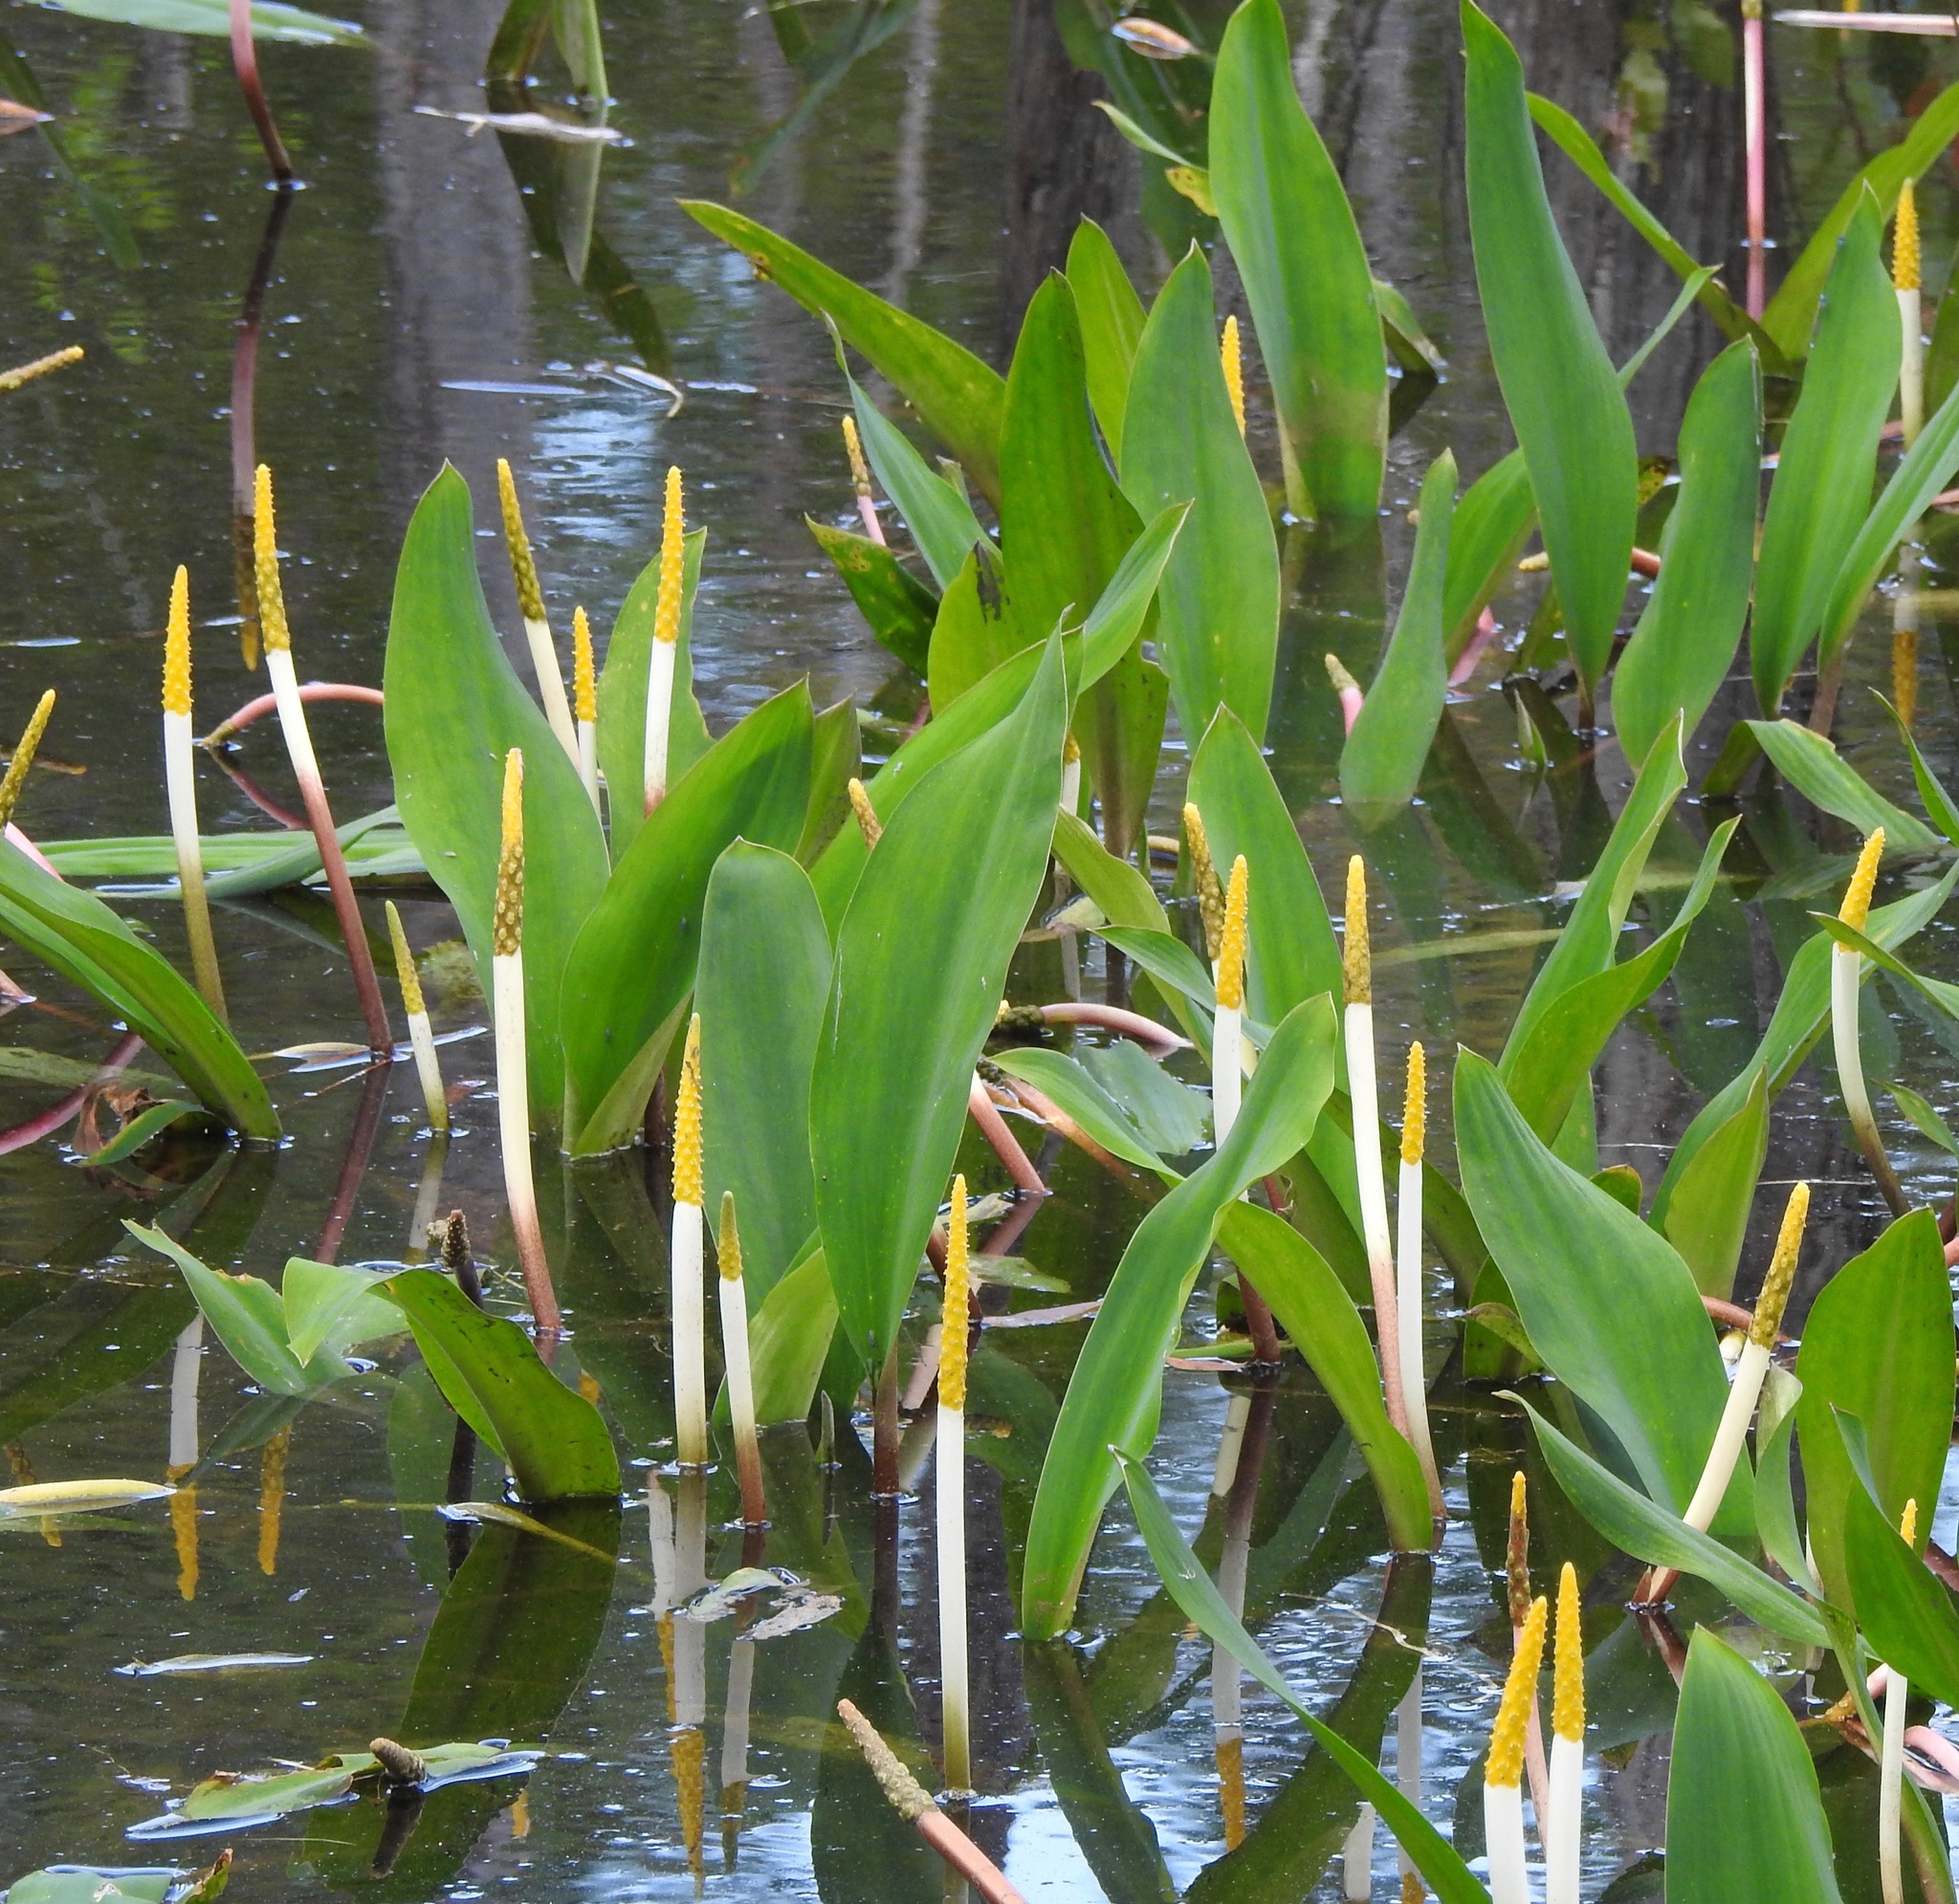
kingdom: Plantae
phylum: Tracheophyta
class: Liliopsida
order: Alismatales
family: Araceae
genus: Orontium
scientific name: Orontium aquaticum
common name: Golden-club
